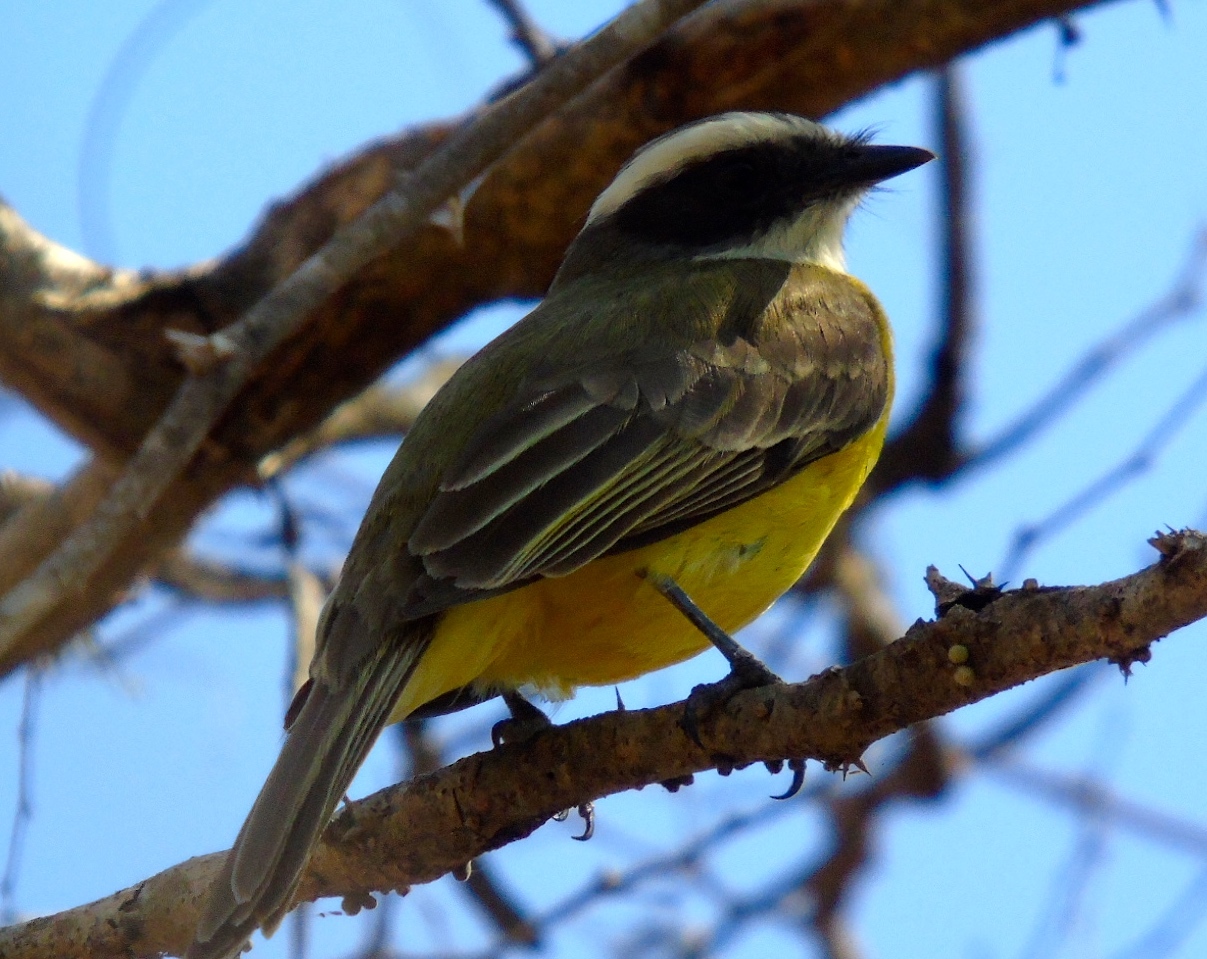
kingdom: Animalia
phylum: Chordata
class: Aves
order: Passeriformes
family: Tyrannidae
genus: Myiozetetes
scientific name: Myiozetetes similis
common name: Social flycatcher
